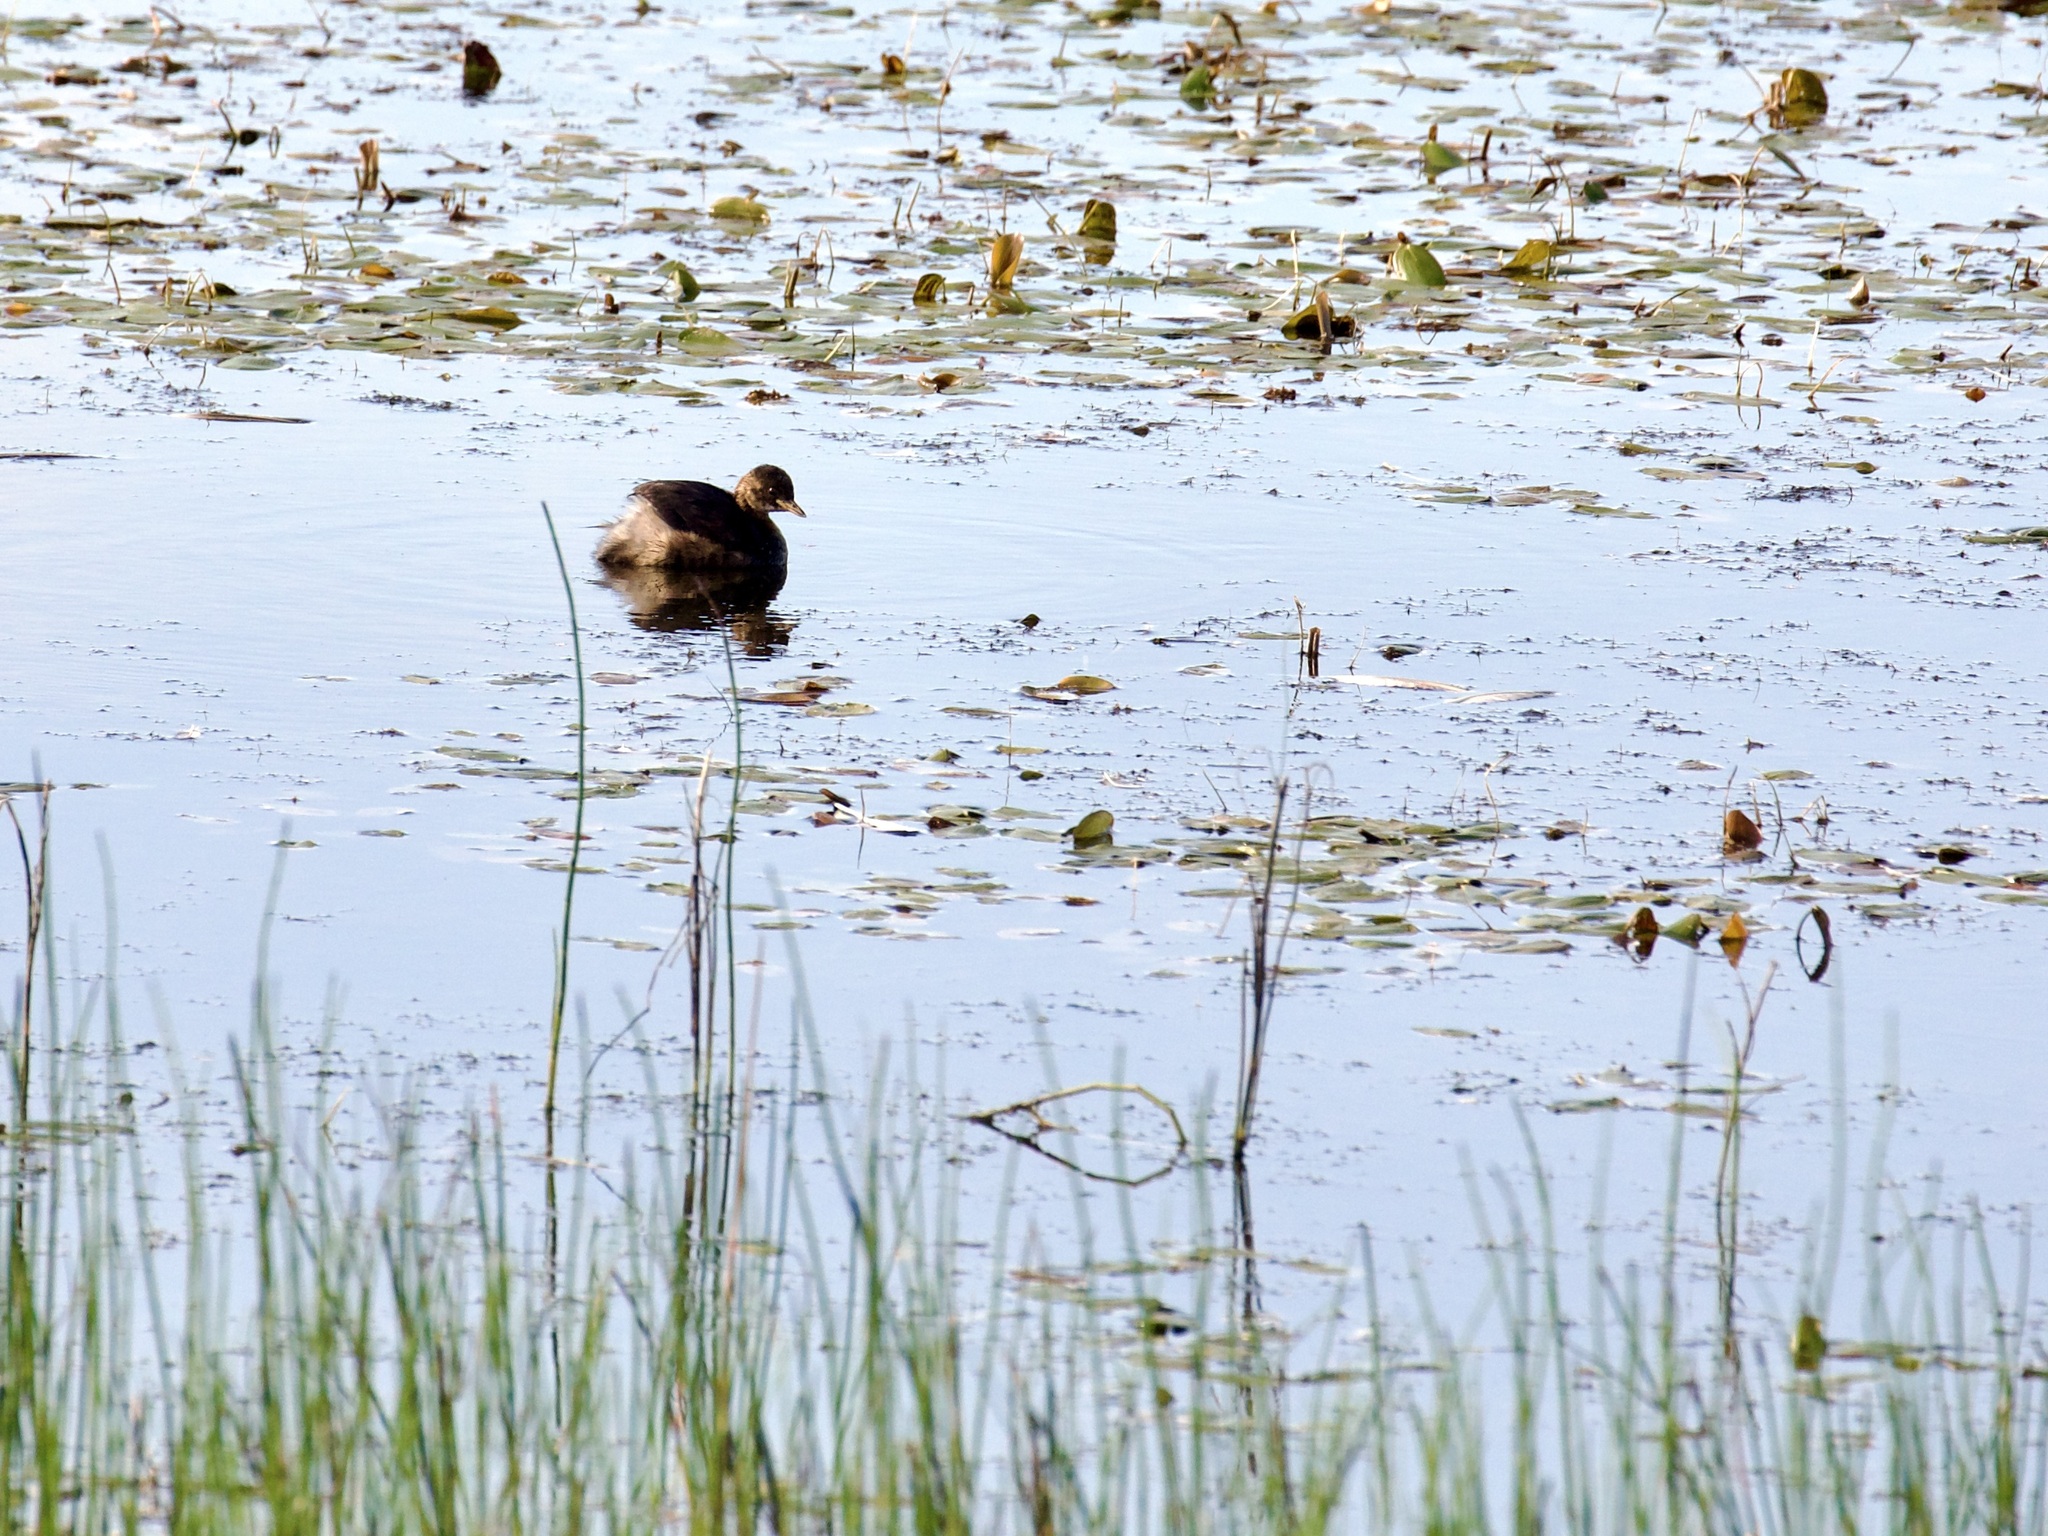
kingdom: Animalia
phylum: Chordata
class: Aves
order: Podicipediformes
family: Podicipedidae
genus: Tachybaptus
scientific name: Tachybaptus ruficollis
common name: Little grebe
